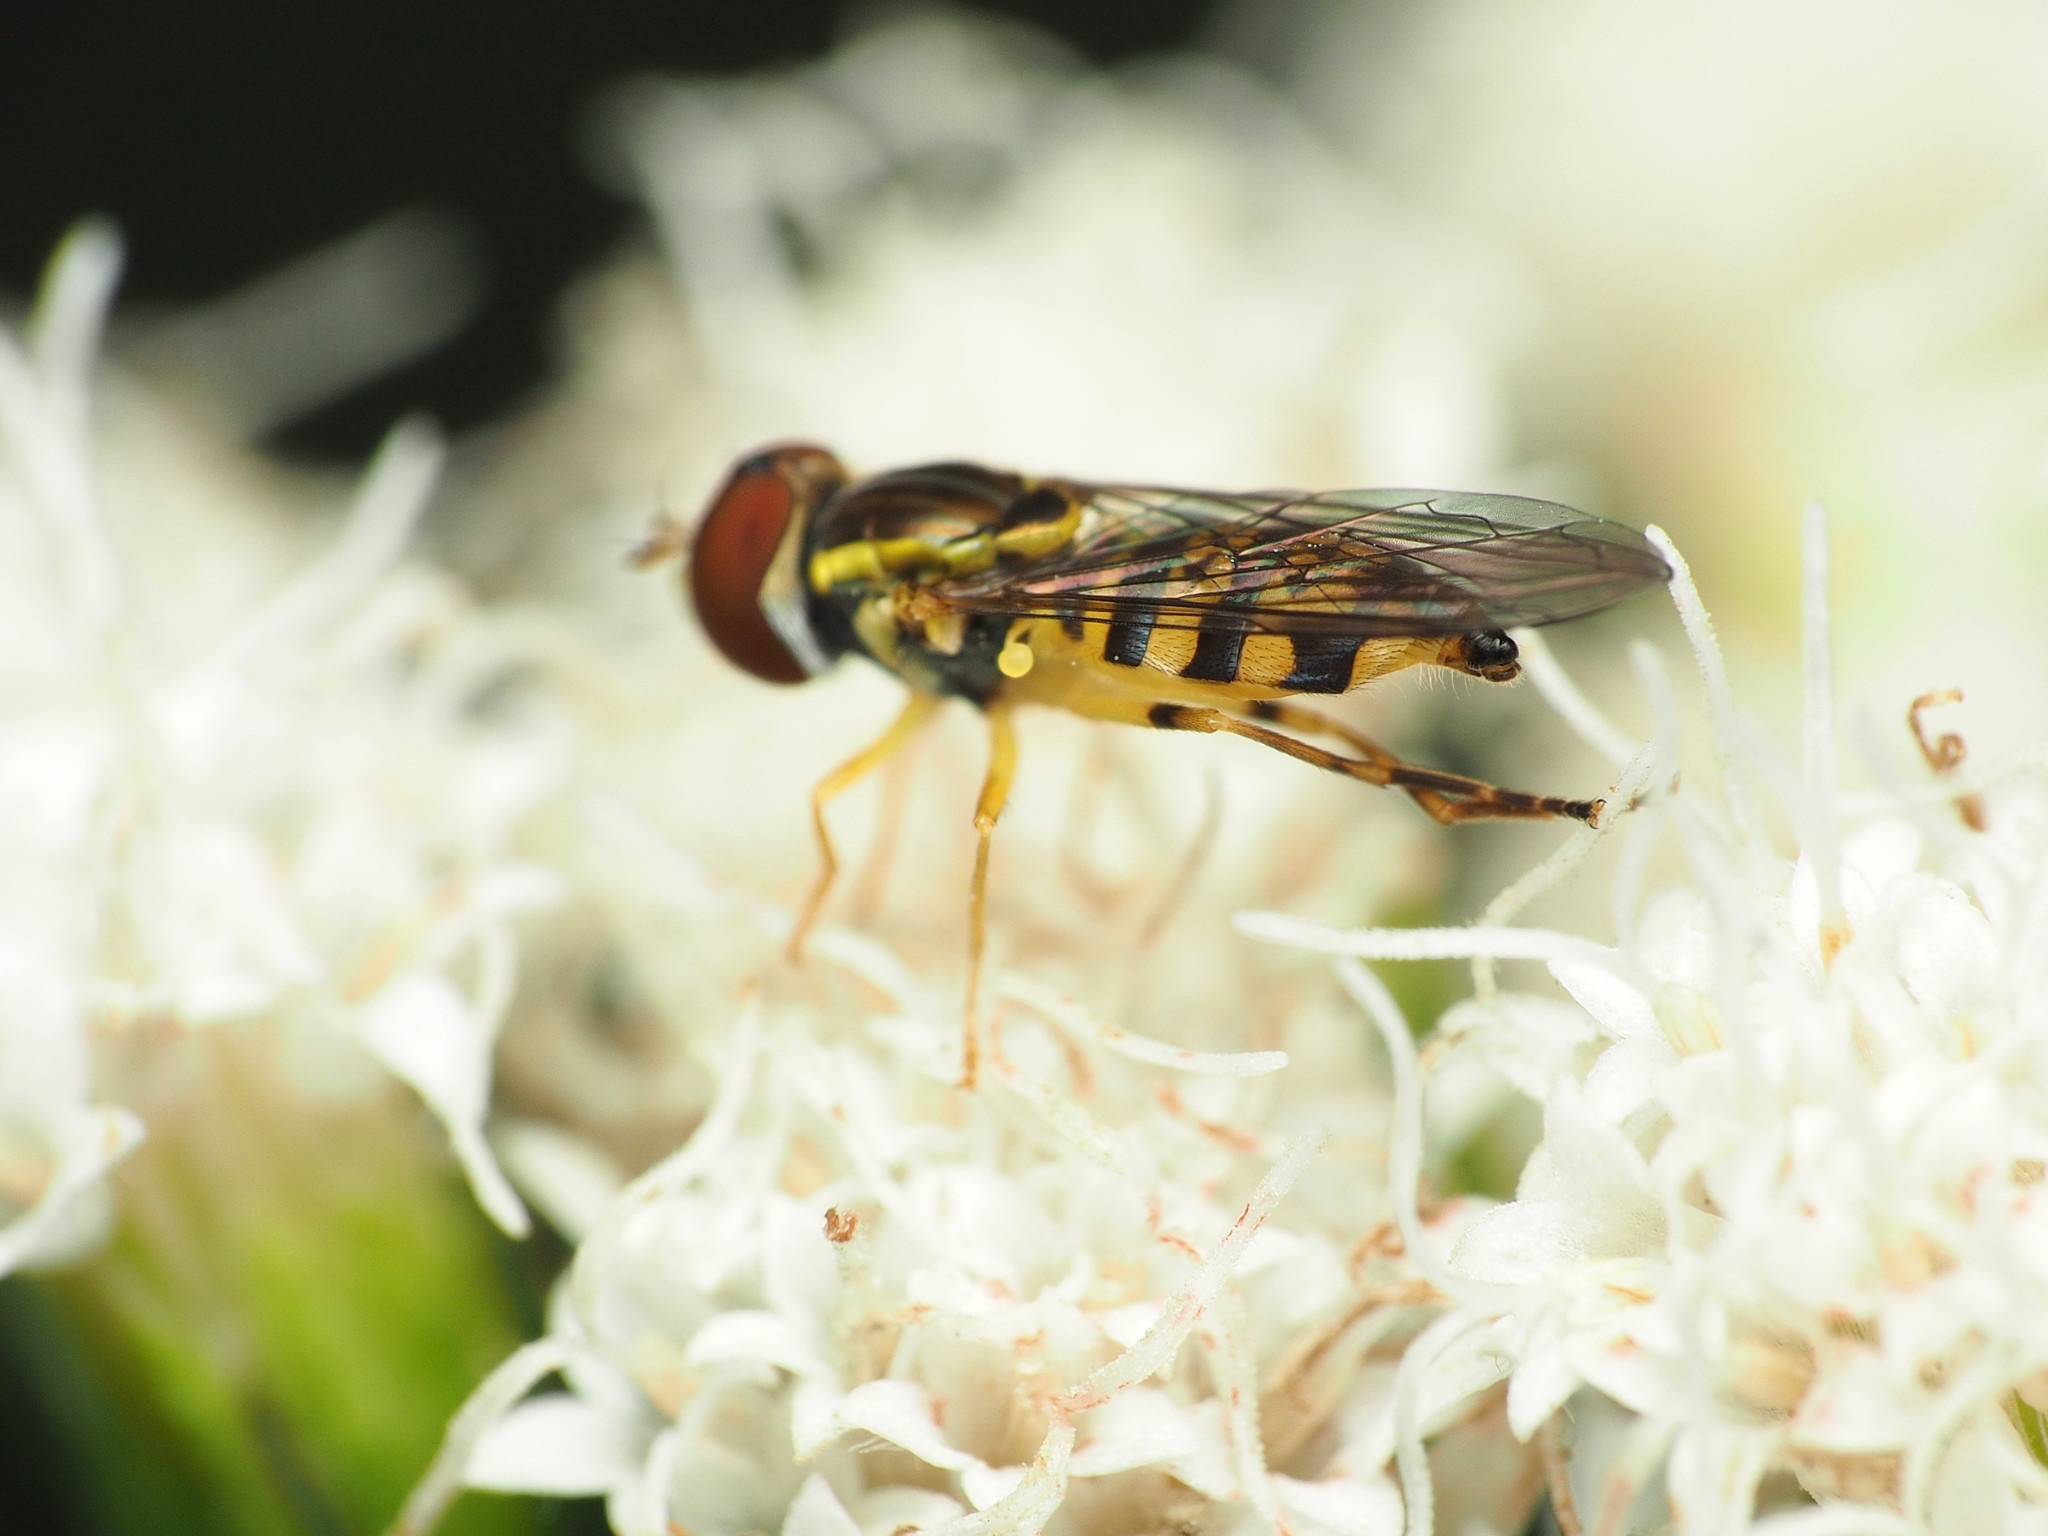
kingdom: Animalia
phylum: Arthropoda
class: Insecta
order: Diptera
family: Syrphidae
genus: Toxomerus
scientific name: Toxomerus geminatus
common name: Eastern calligrapher
